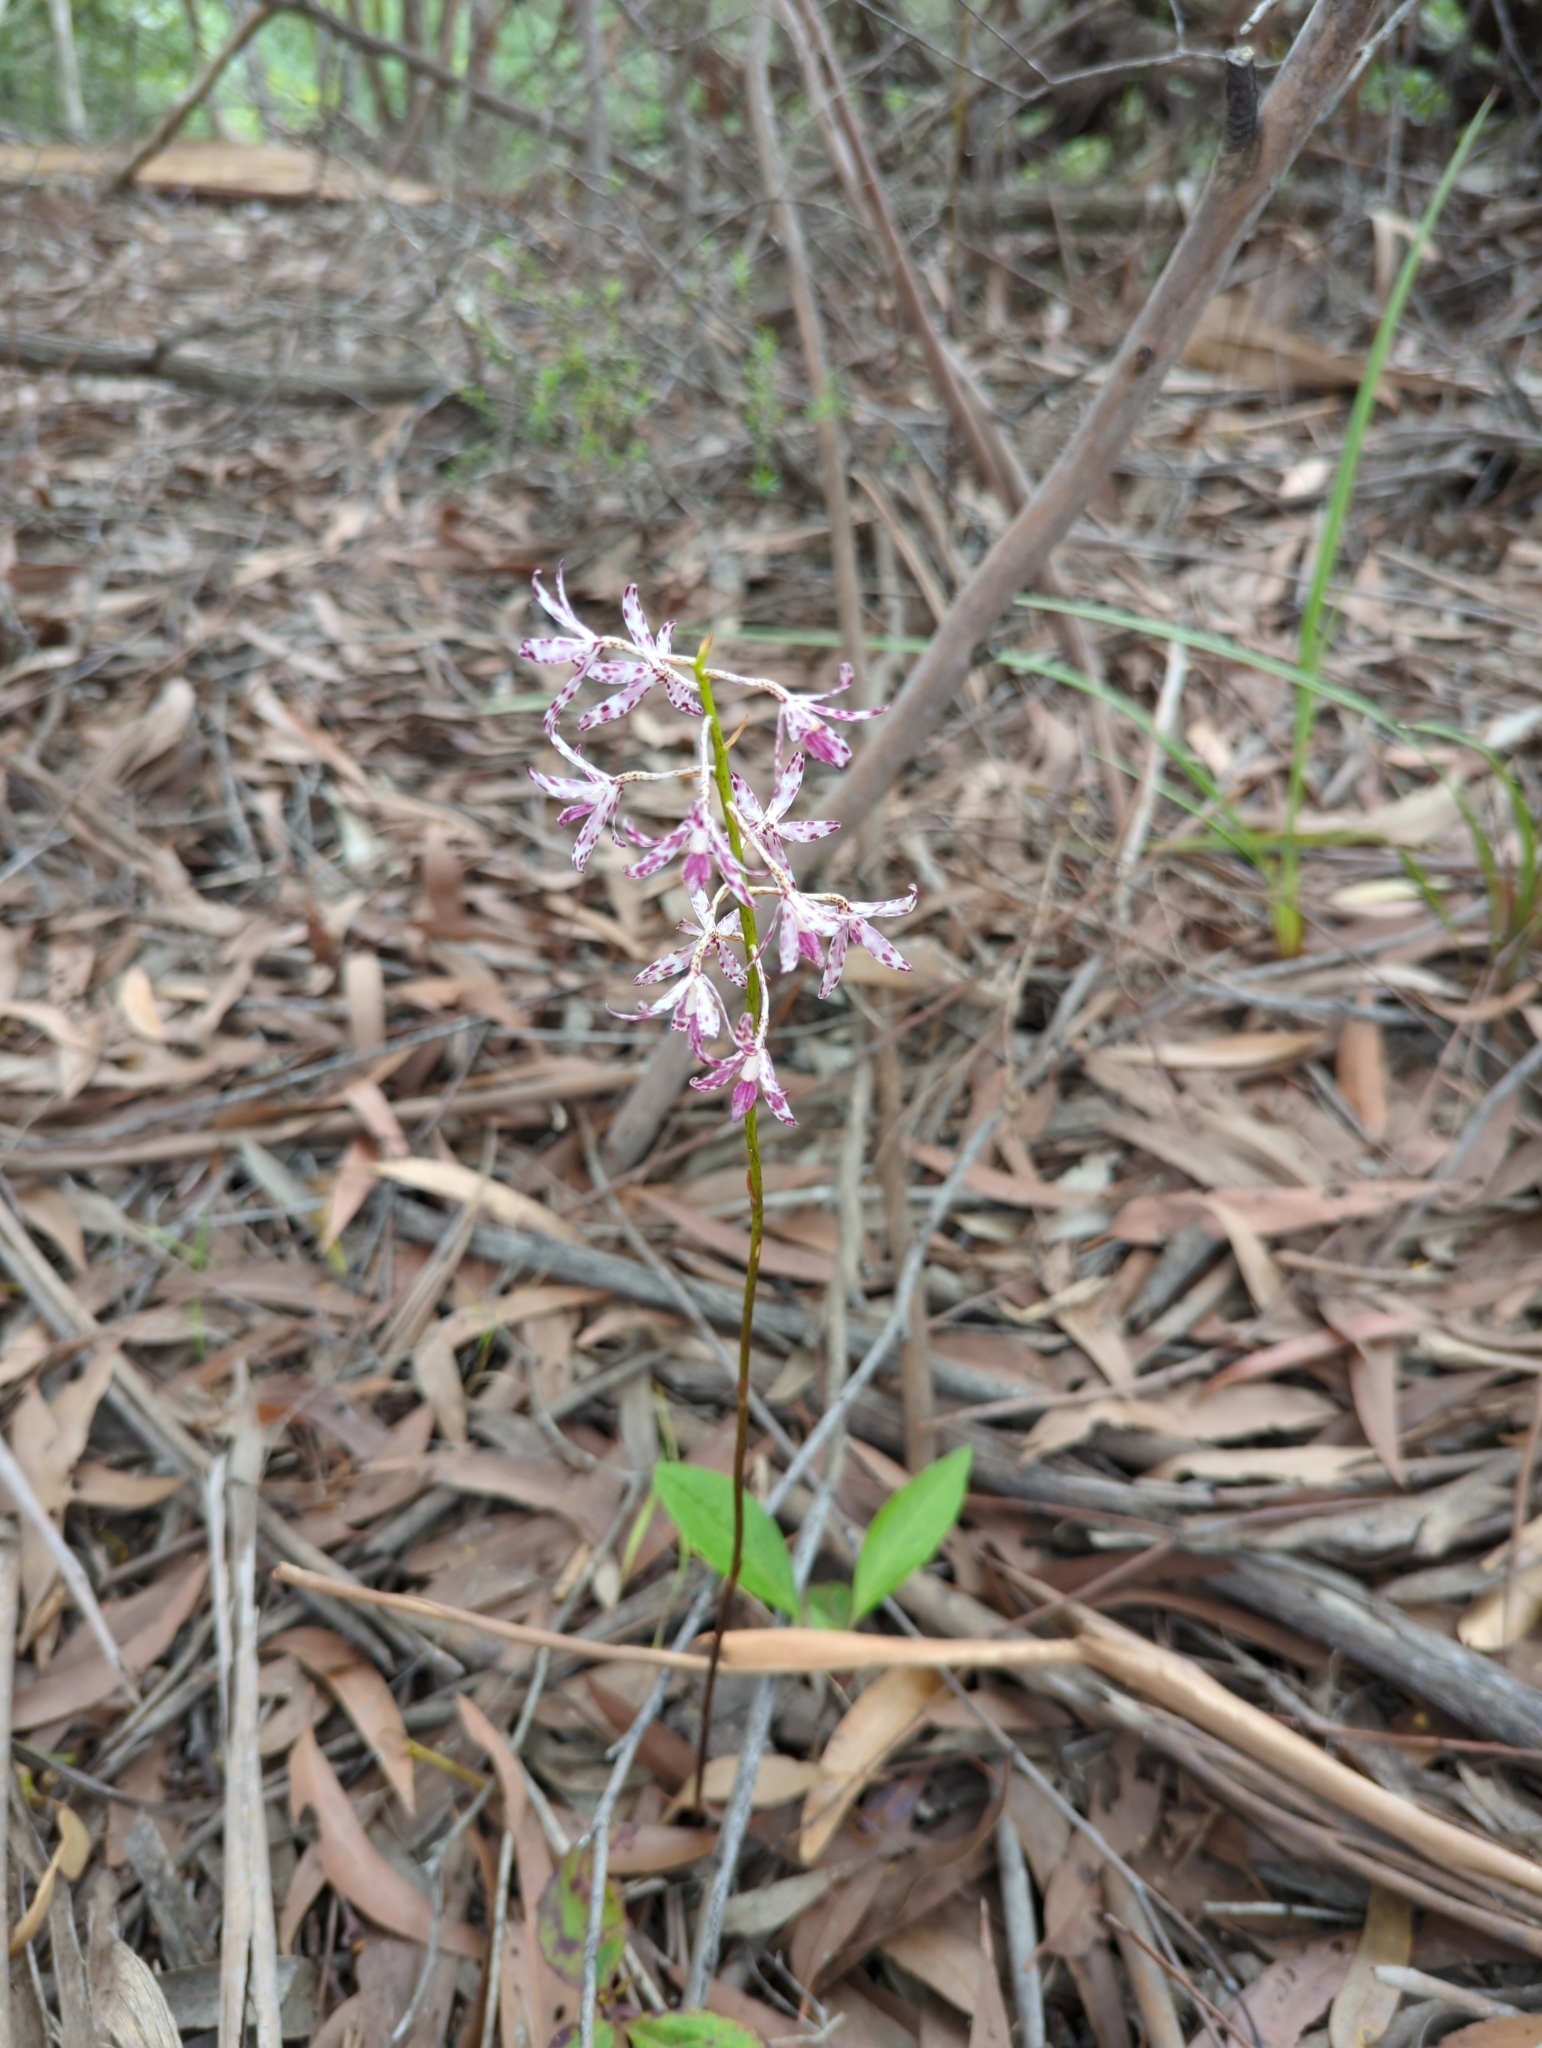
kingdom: Plantae
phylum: Tracheophyta
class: Liliopsida
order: Asparagales
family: Orchidaceae
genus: Dipodium
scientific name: Dipodium variegatum
